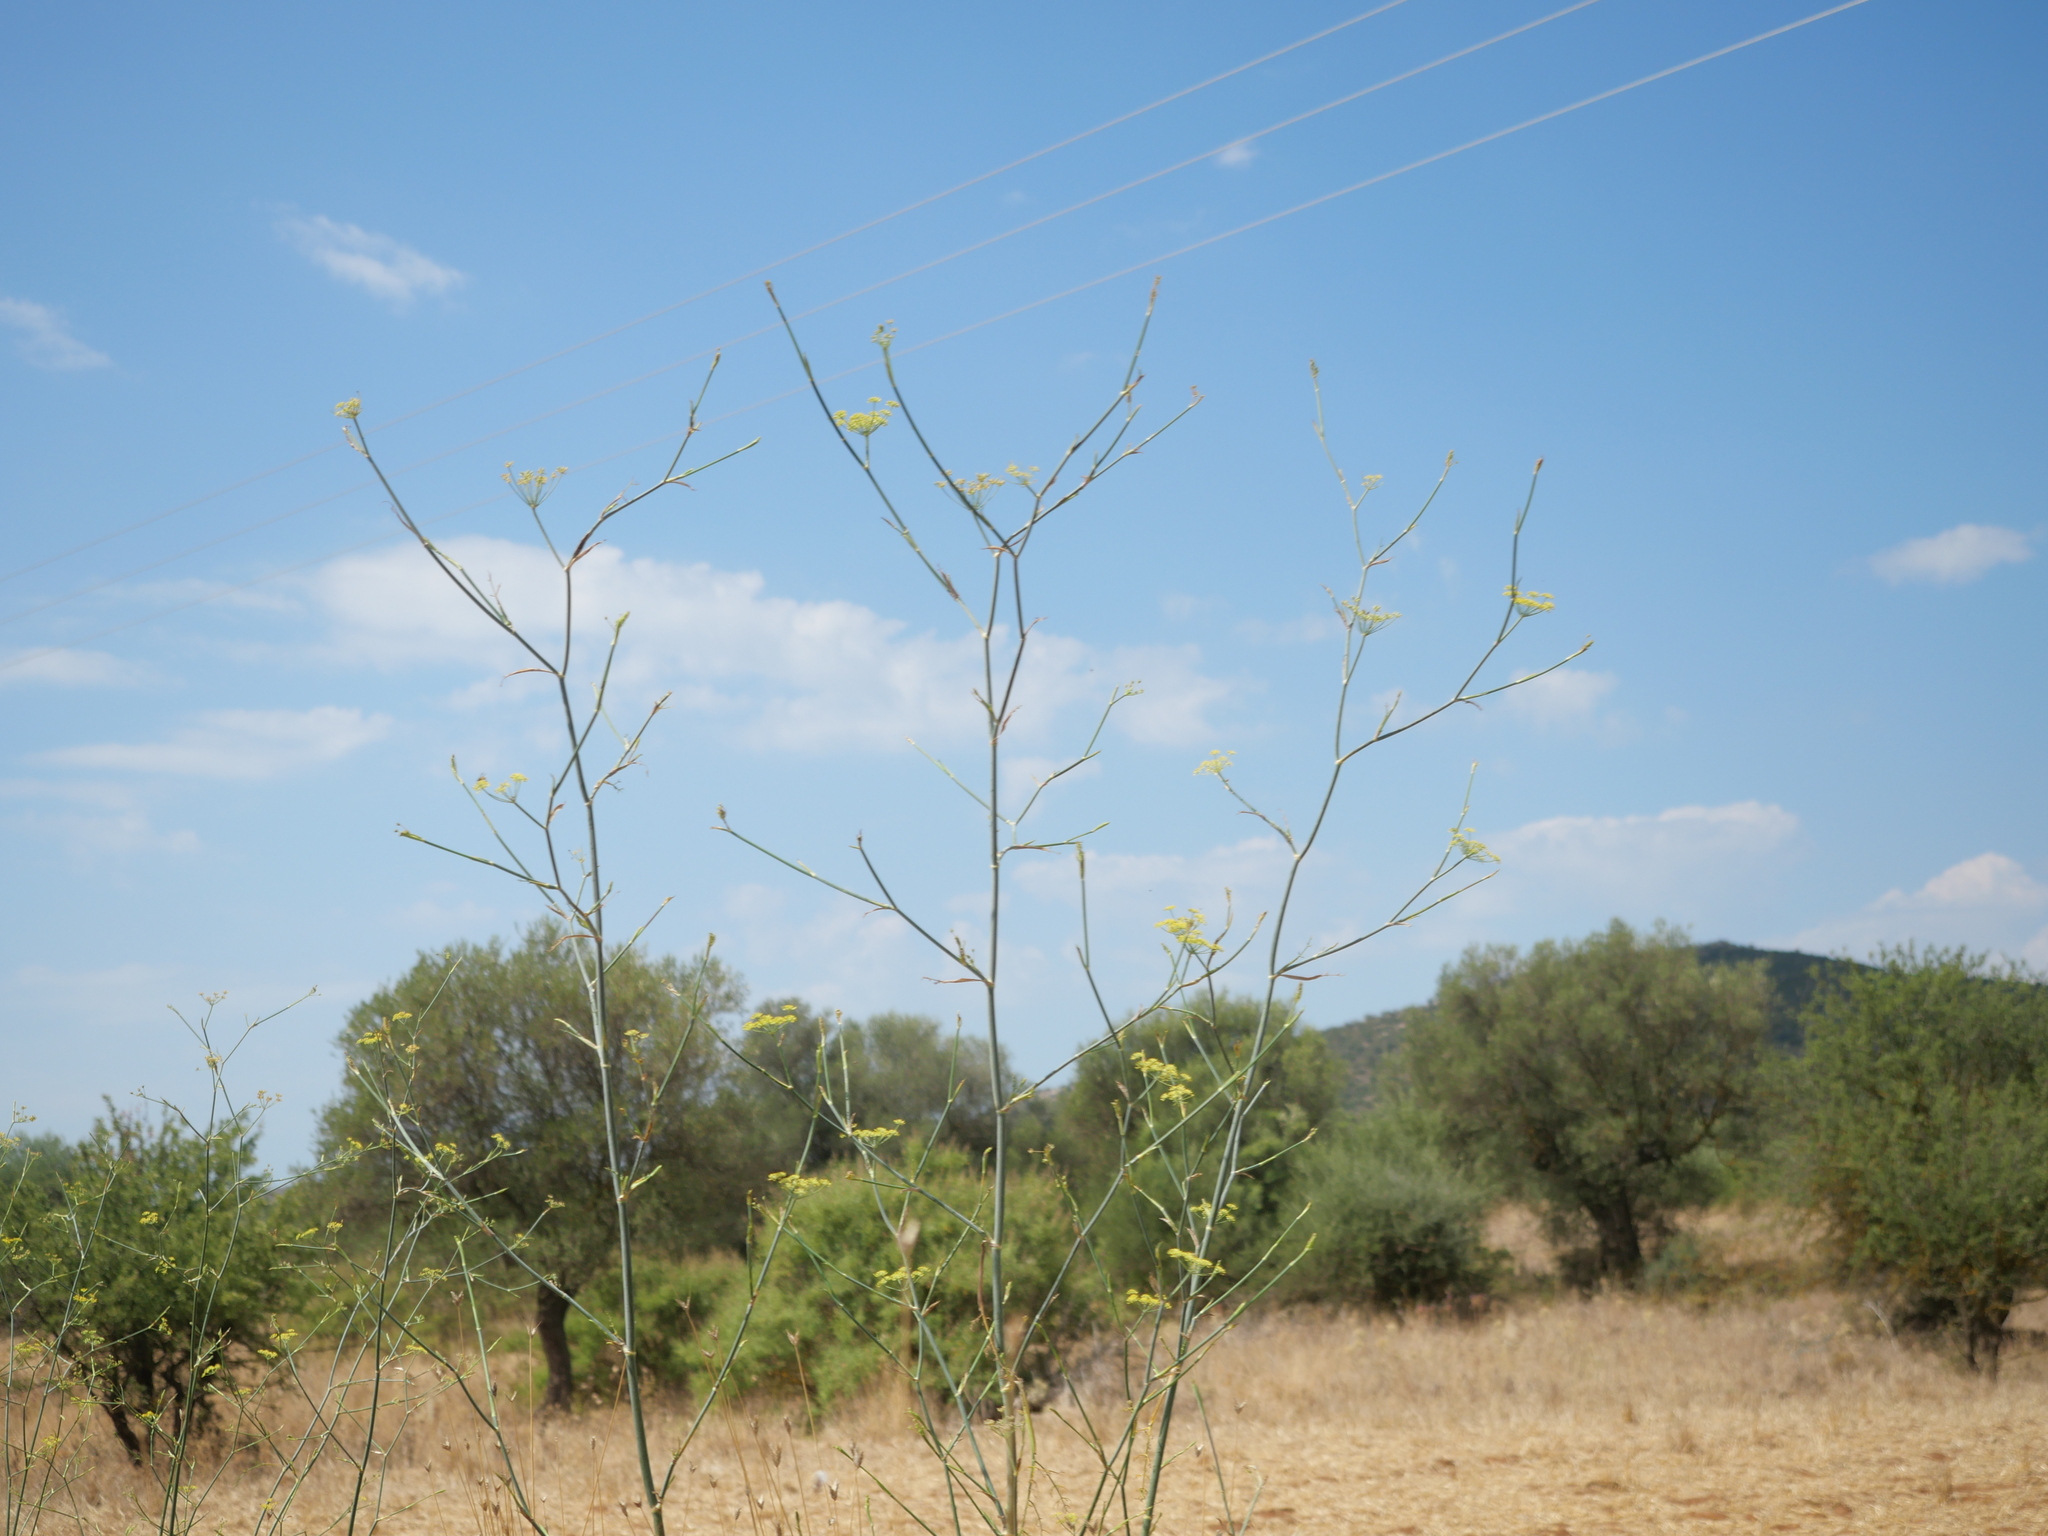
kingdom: Plantae
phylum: Tracheophyta
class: Magnoliopsida
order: Apiales
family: Apiaceae
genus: Foeniculum
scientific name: Foeniculum vulgare
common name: Fennel
